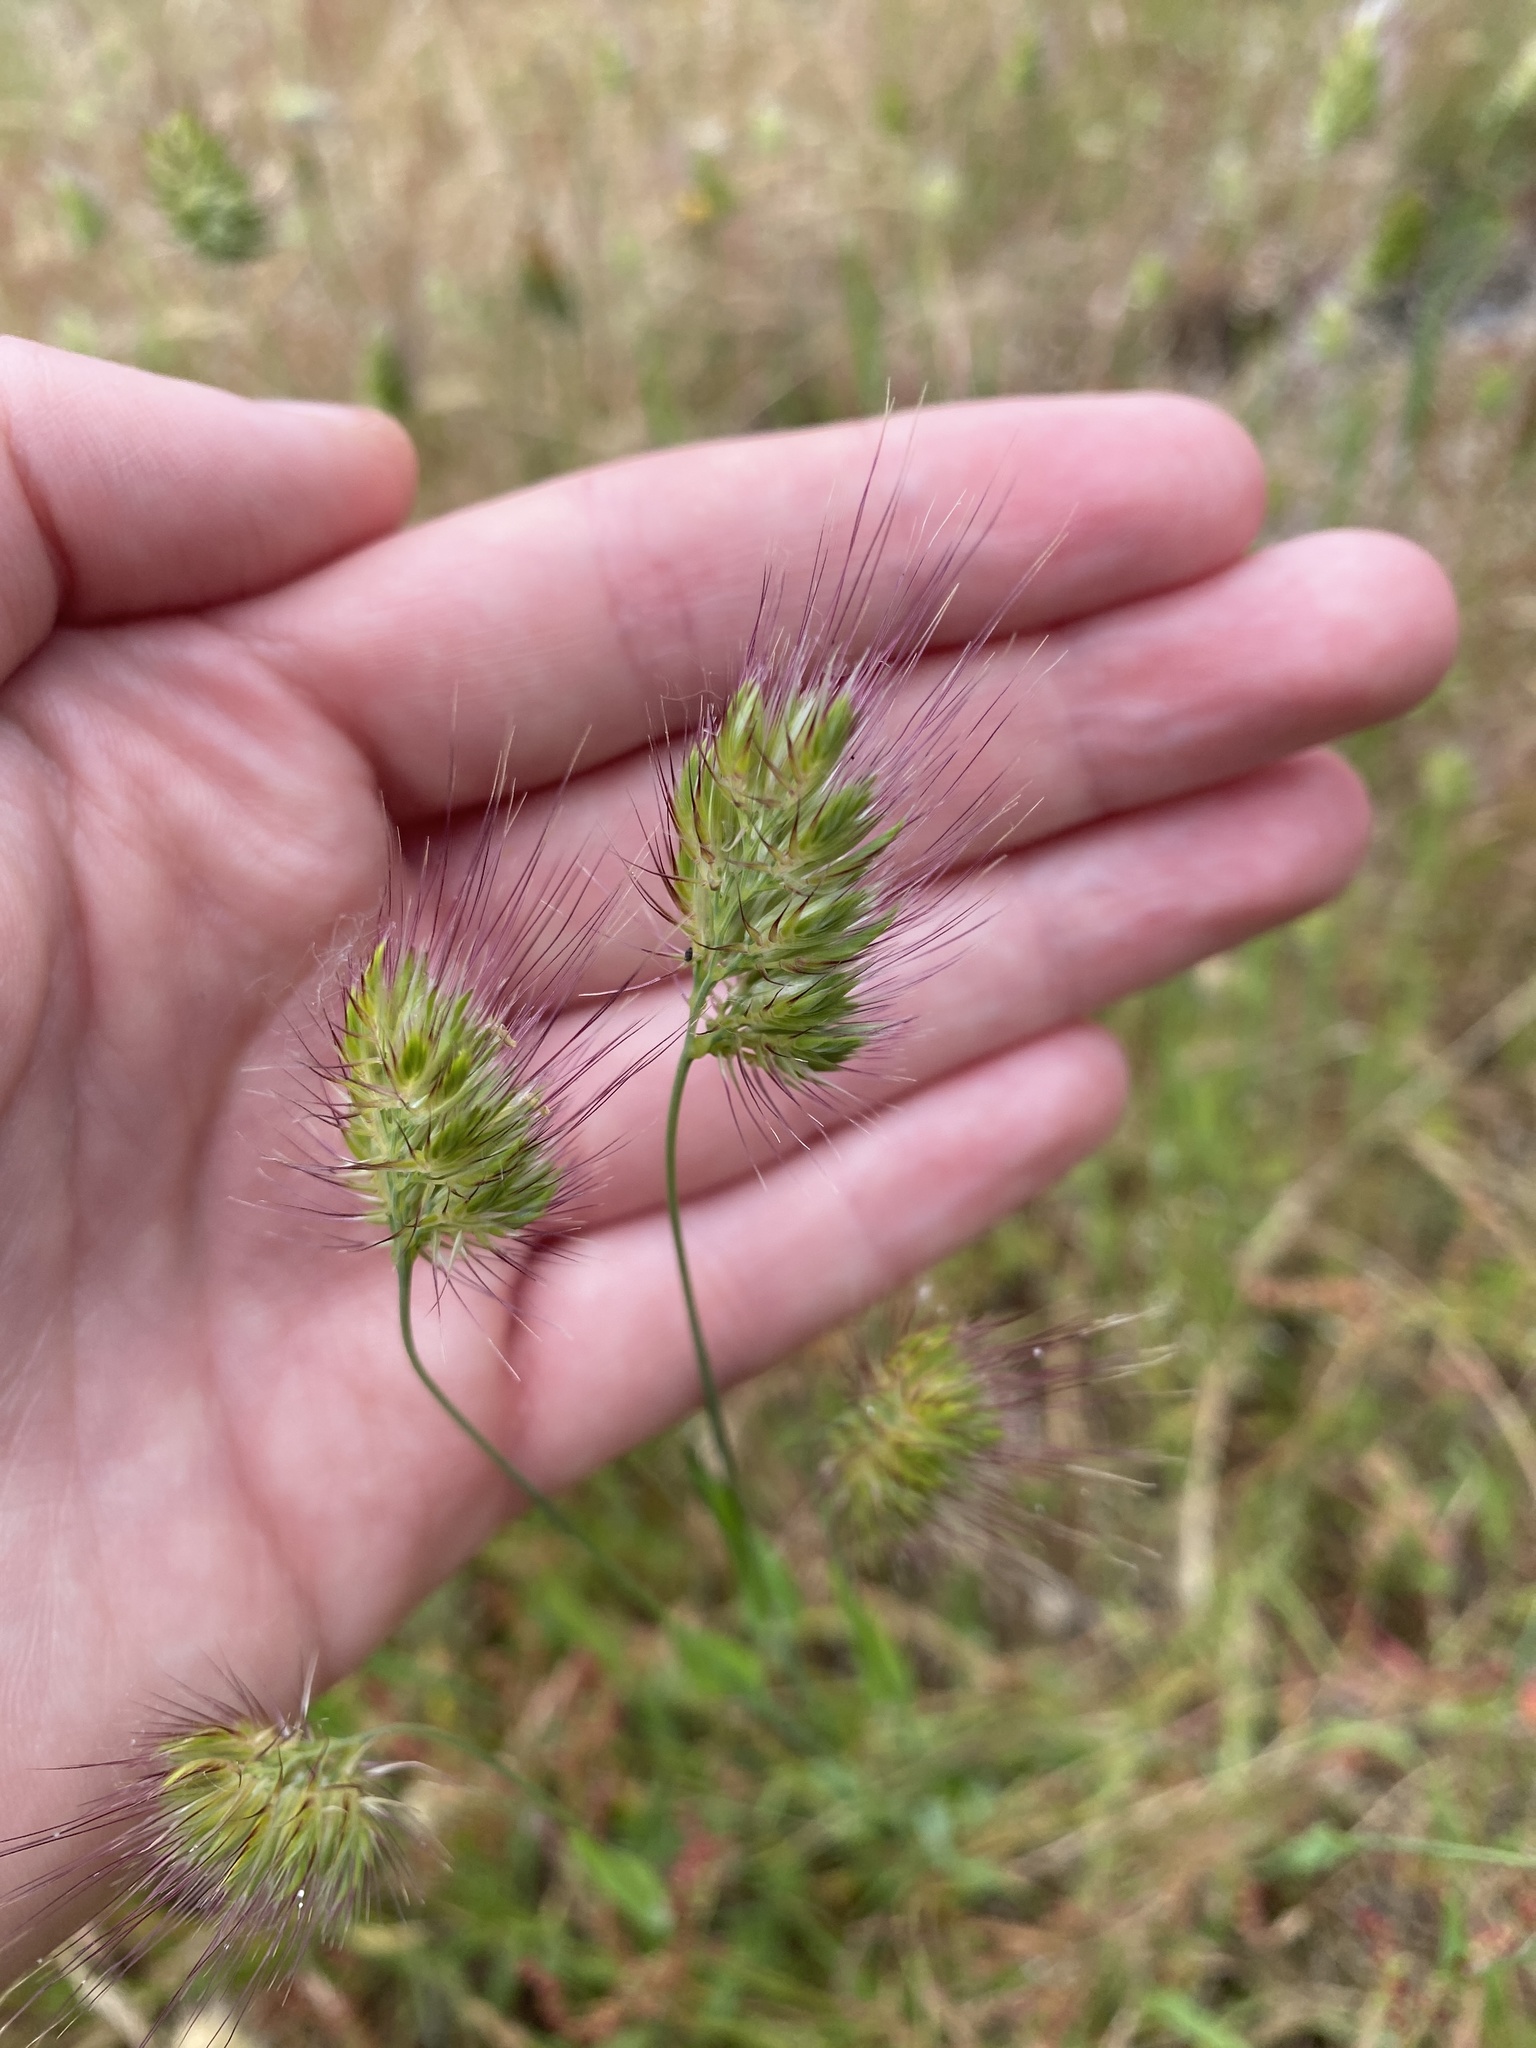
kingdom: Plantae
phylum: Tracheophyta
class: Liliopsida
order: Poales
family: Poaceae
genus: Cynosurus
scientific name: Cynosurus echinatus
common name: Rough dog's-tail
